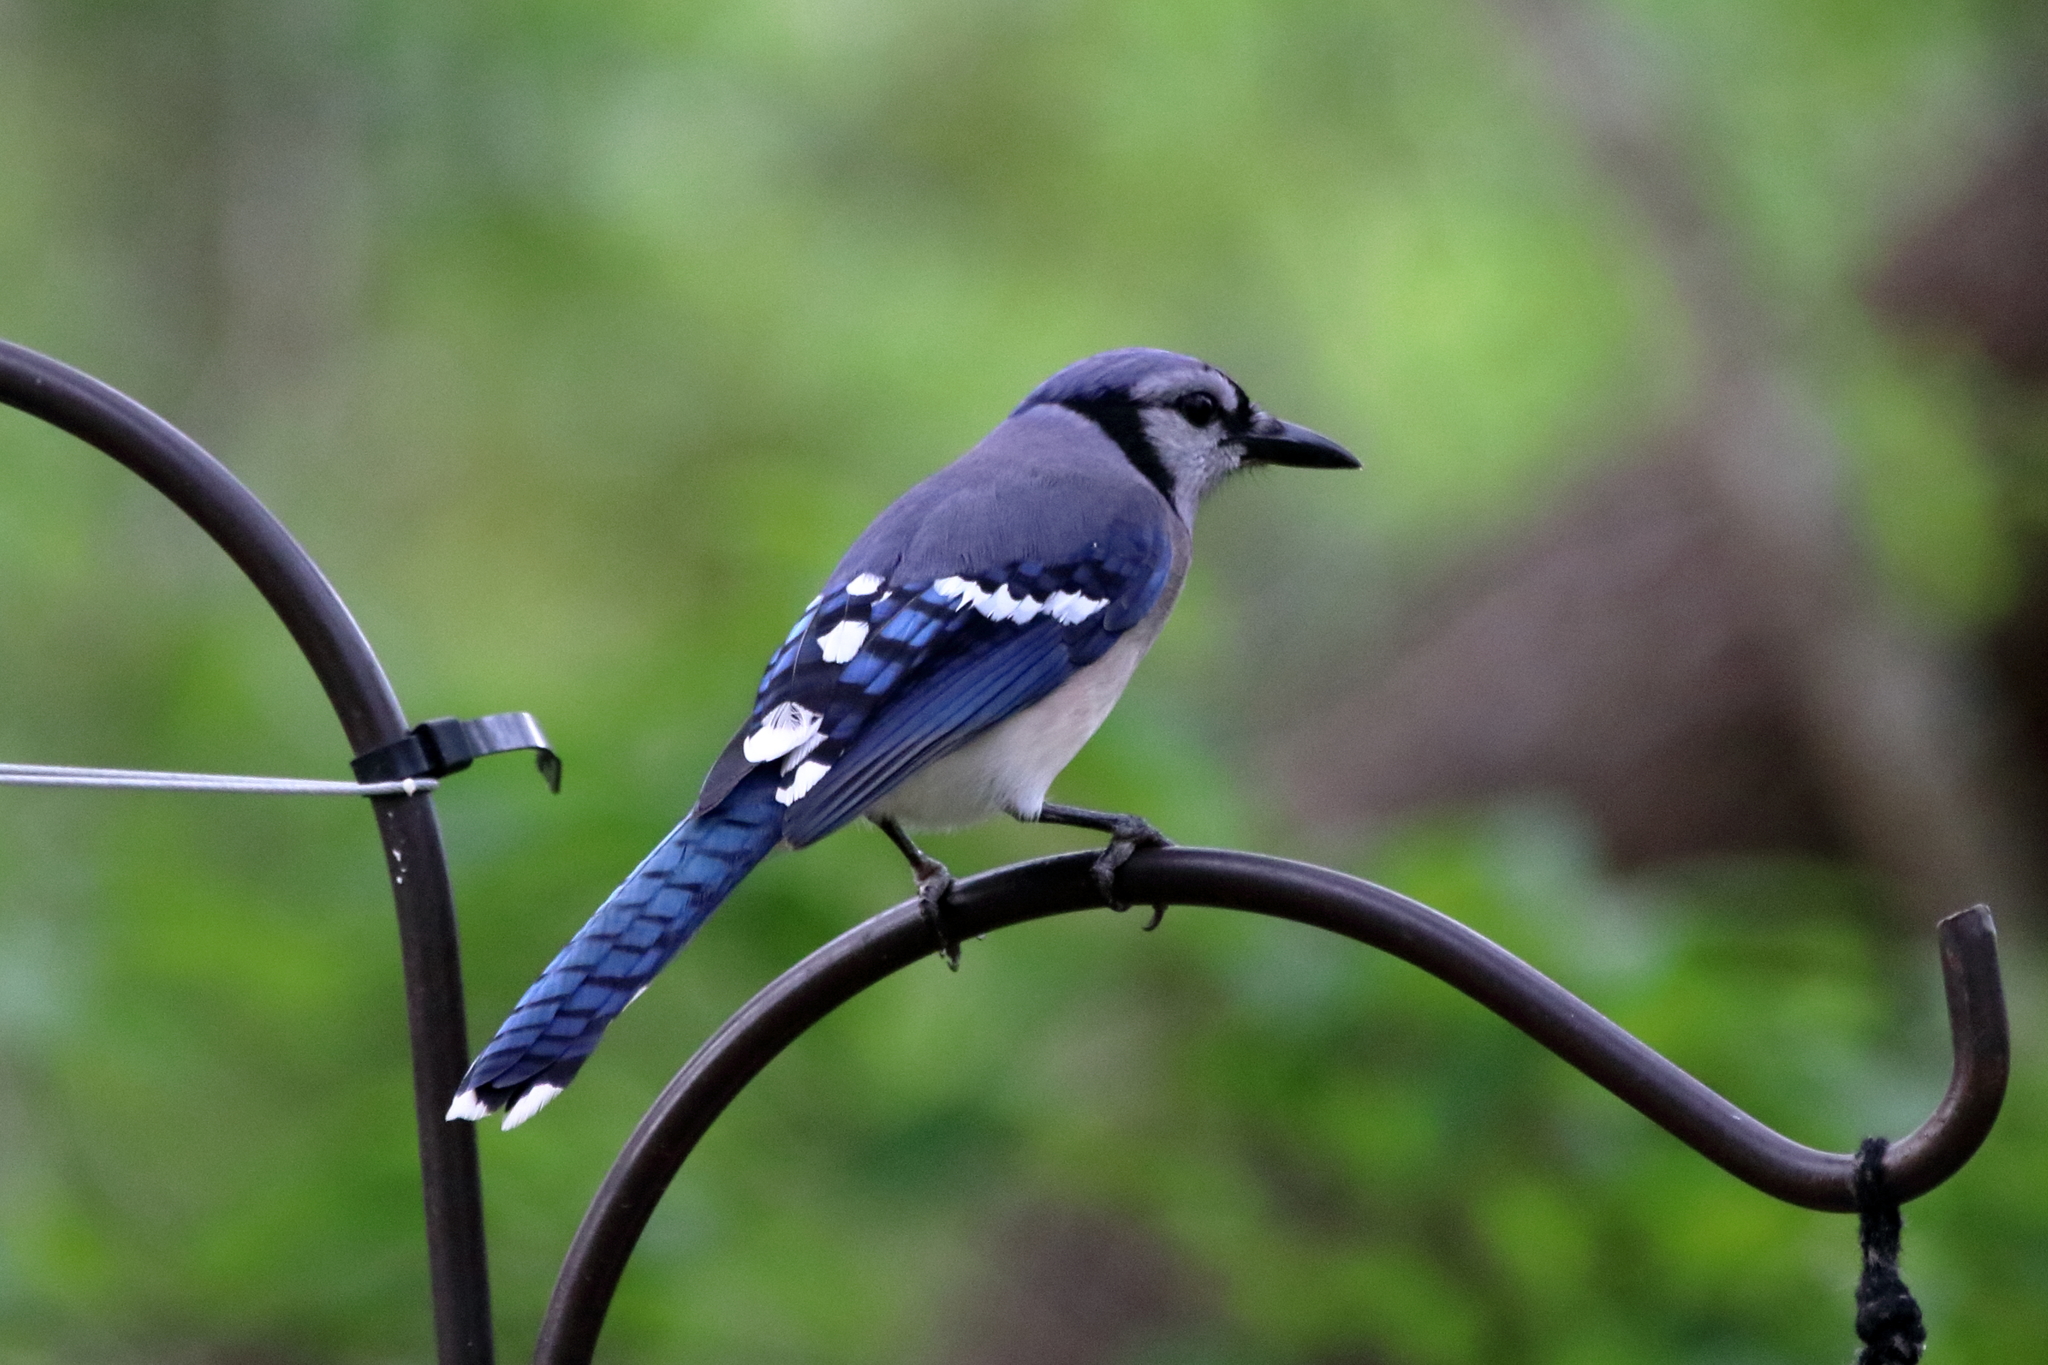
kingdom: Animalia
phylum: Chordata
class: Aves
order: Passeriformes
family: Corvidae
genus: Cyanocitta
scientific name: Cyanocitta cristata
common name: Blue jay
